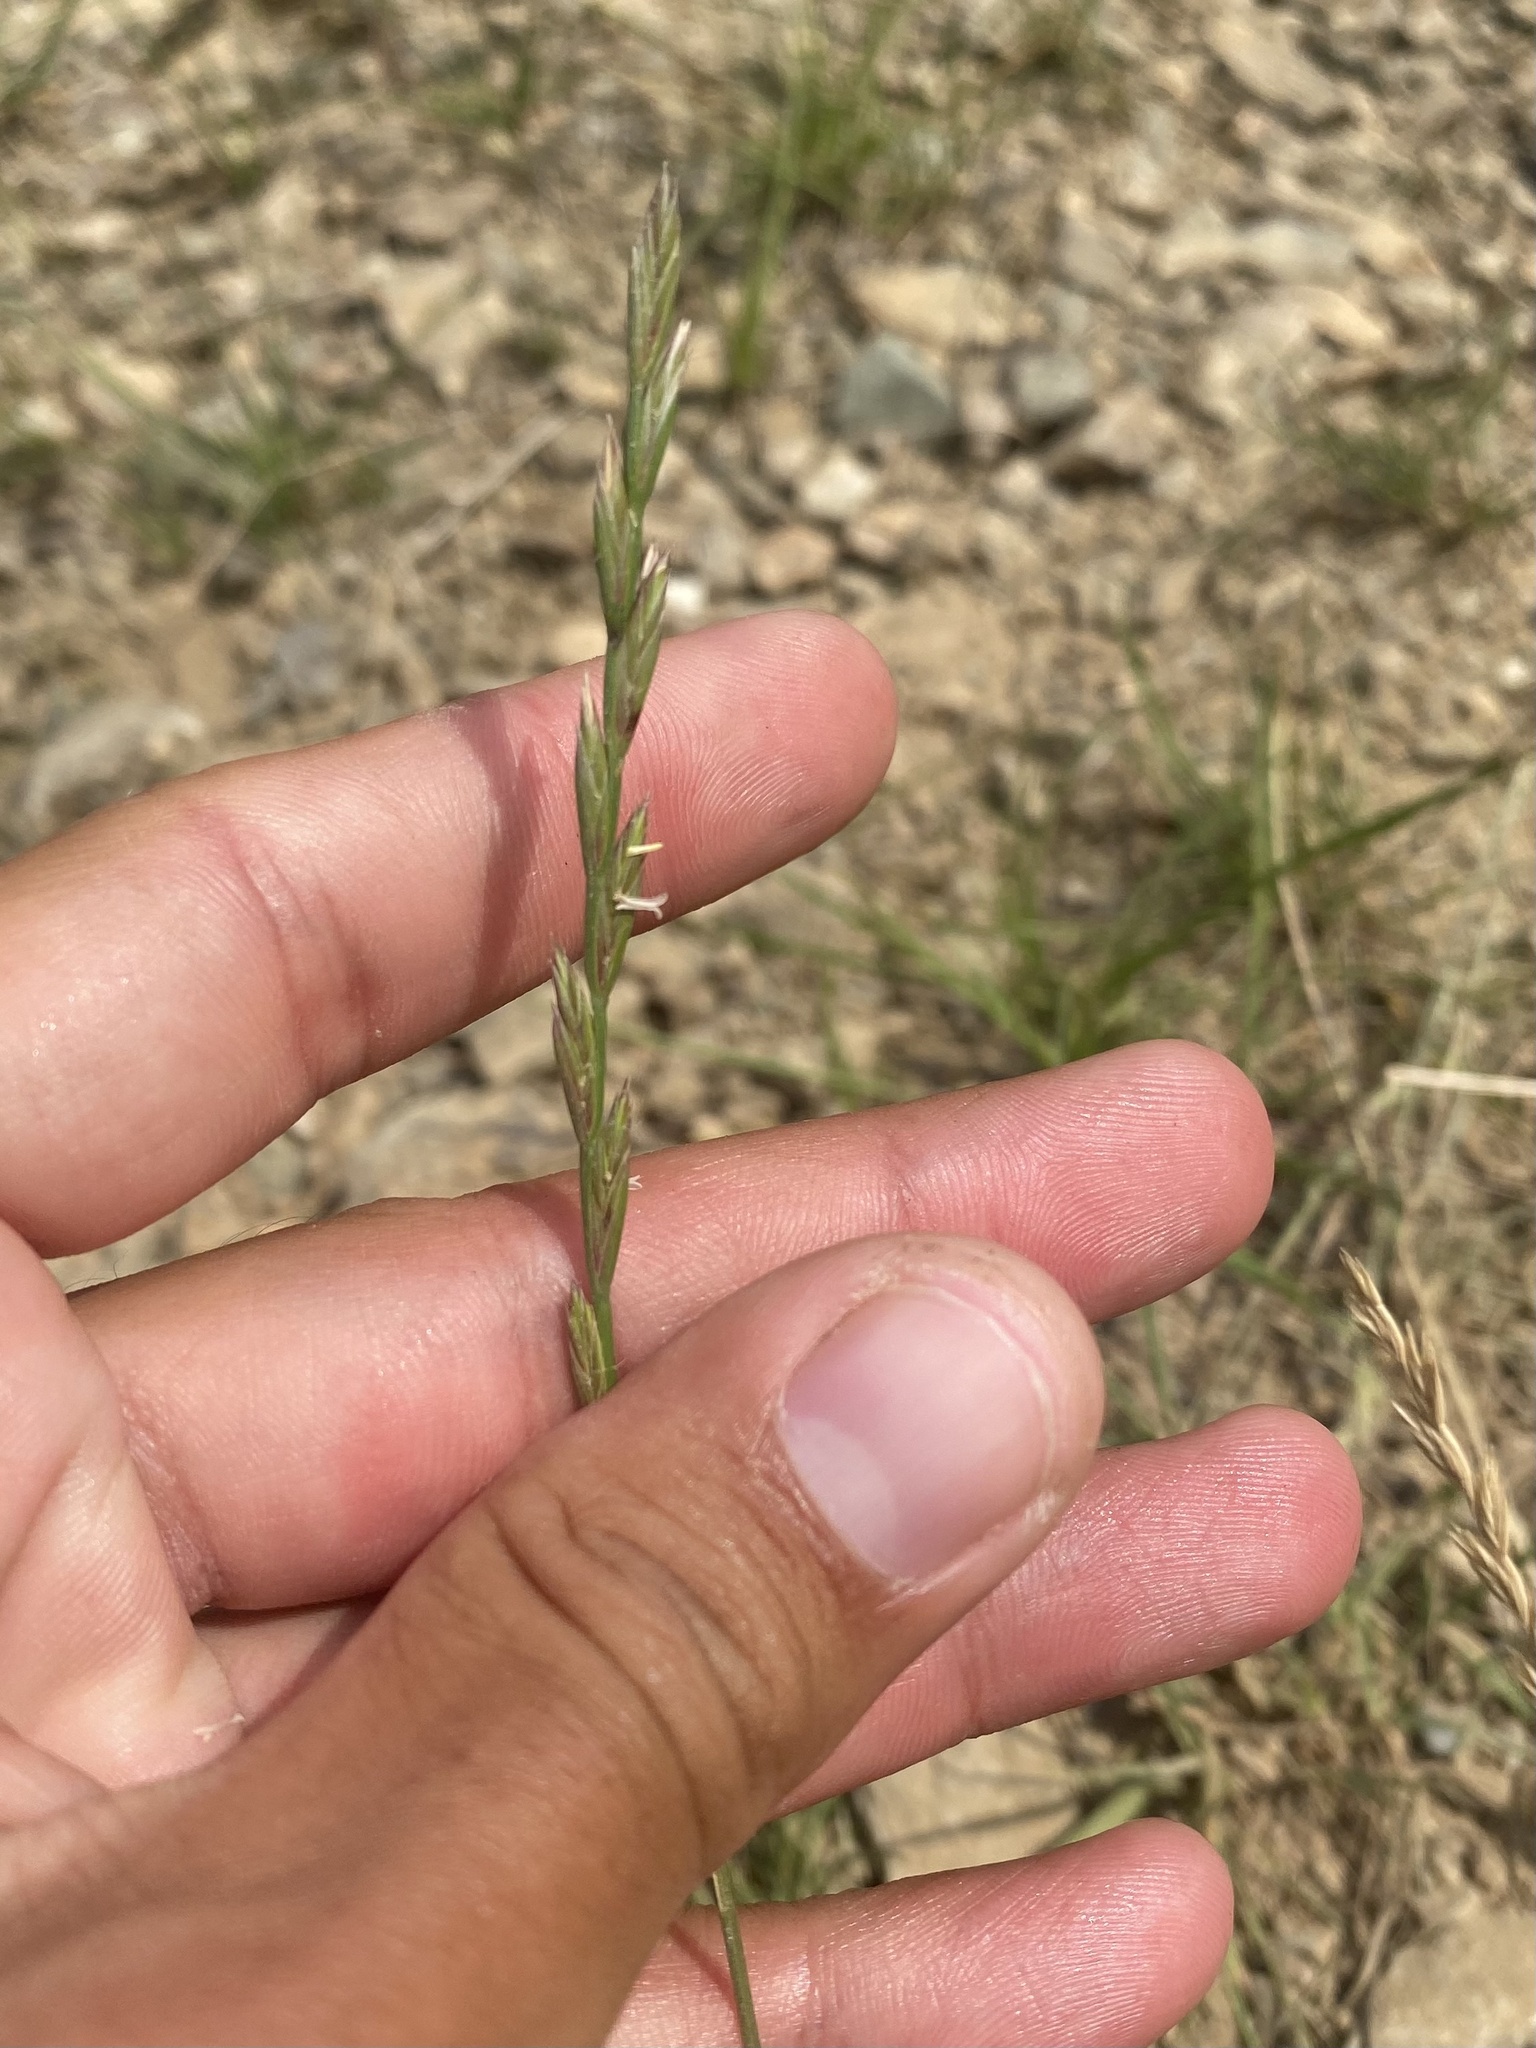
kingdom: Plantae
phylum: Tracheophyta
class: Liliopsida
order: Poales
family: Poaceae
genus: Lolium
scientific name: Lolium perenne
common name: Perennial ryegrass
